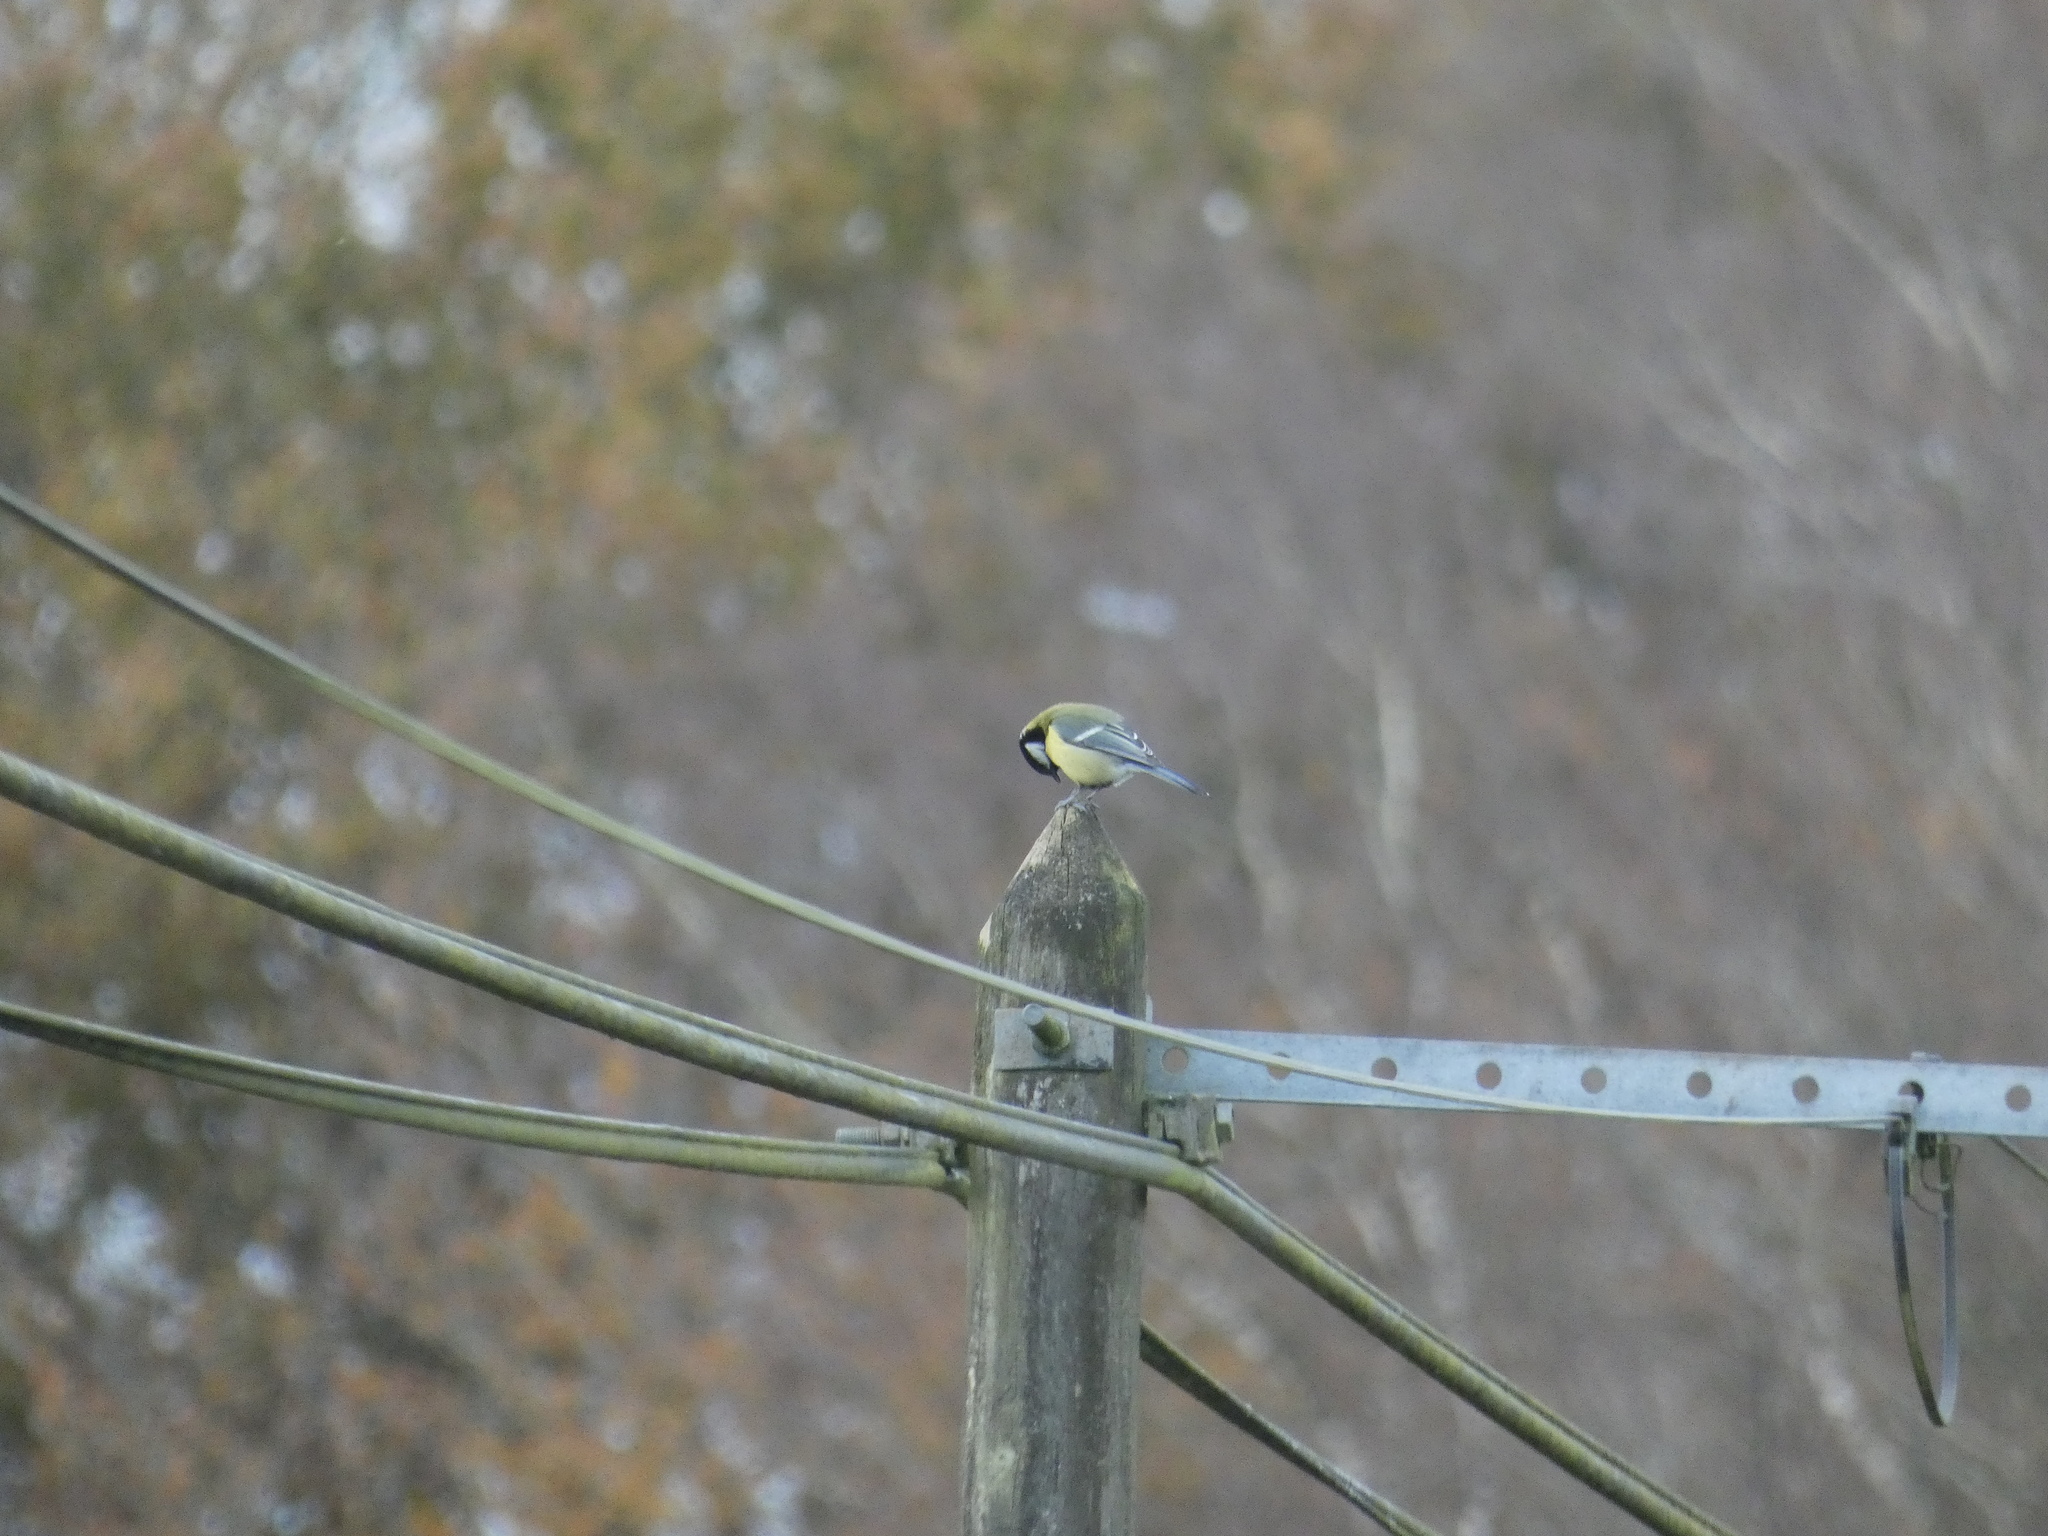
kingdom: Animalia
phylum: Chordata
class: Aves
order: Passeriformes
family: Paridae
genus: Parus
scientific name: Parus major
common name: Great tit
